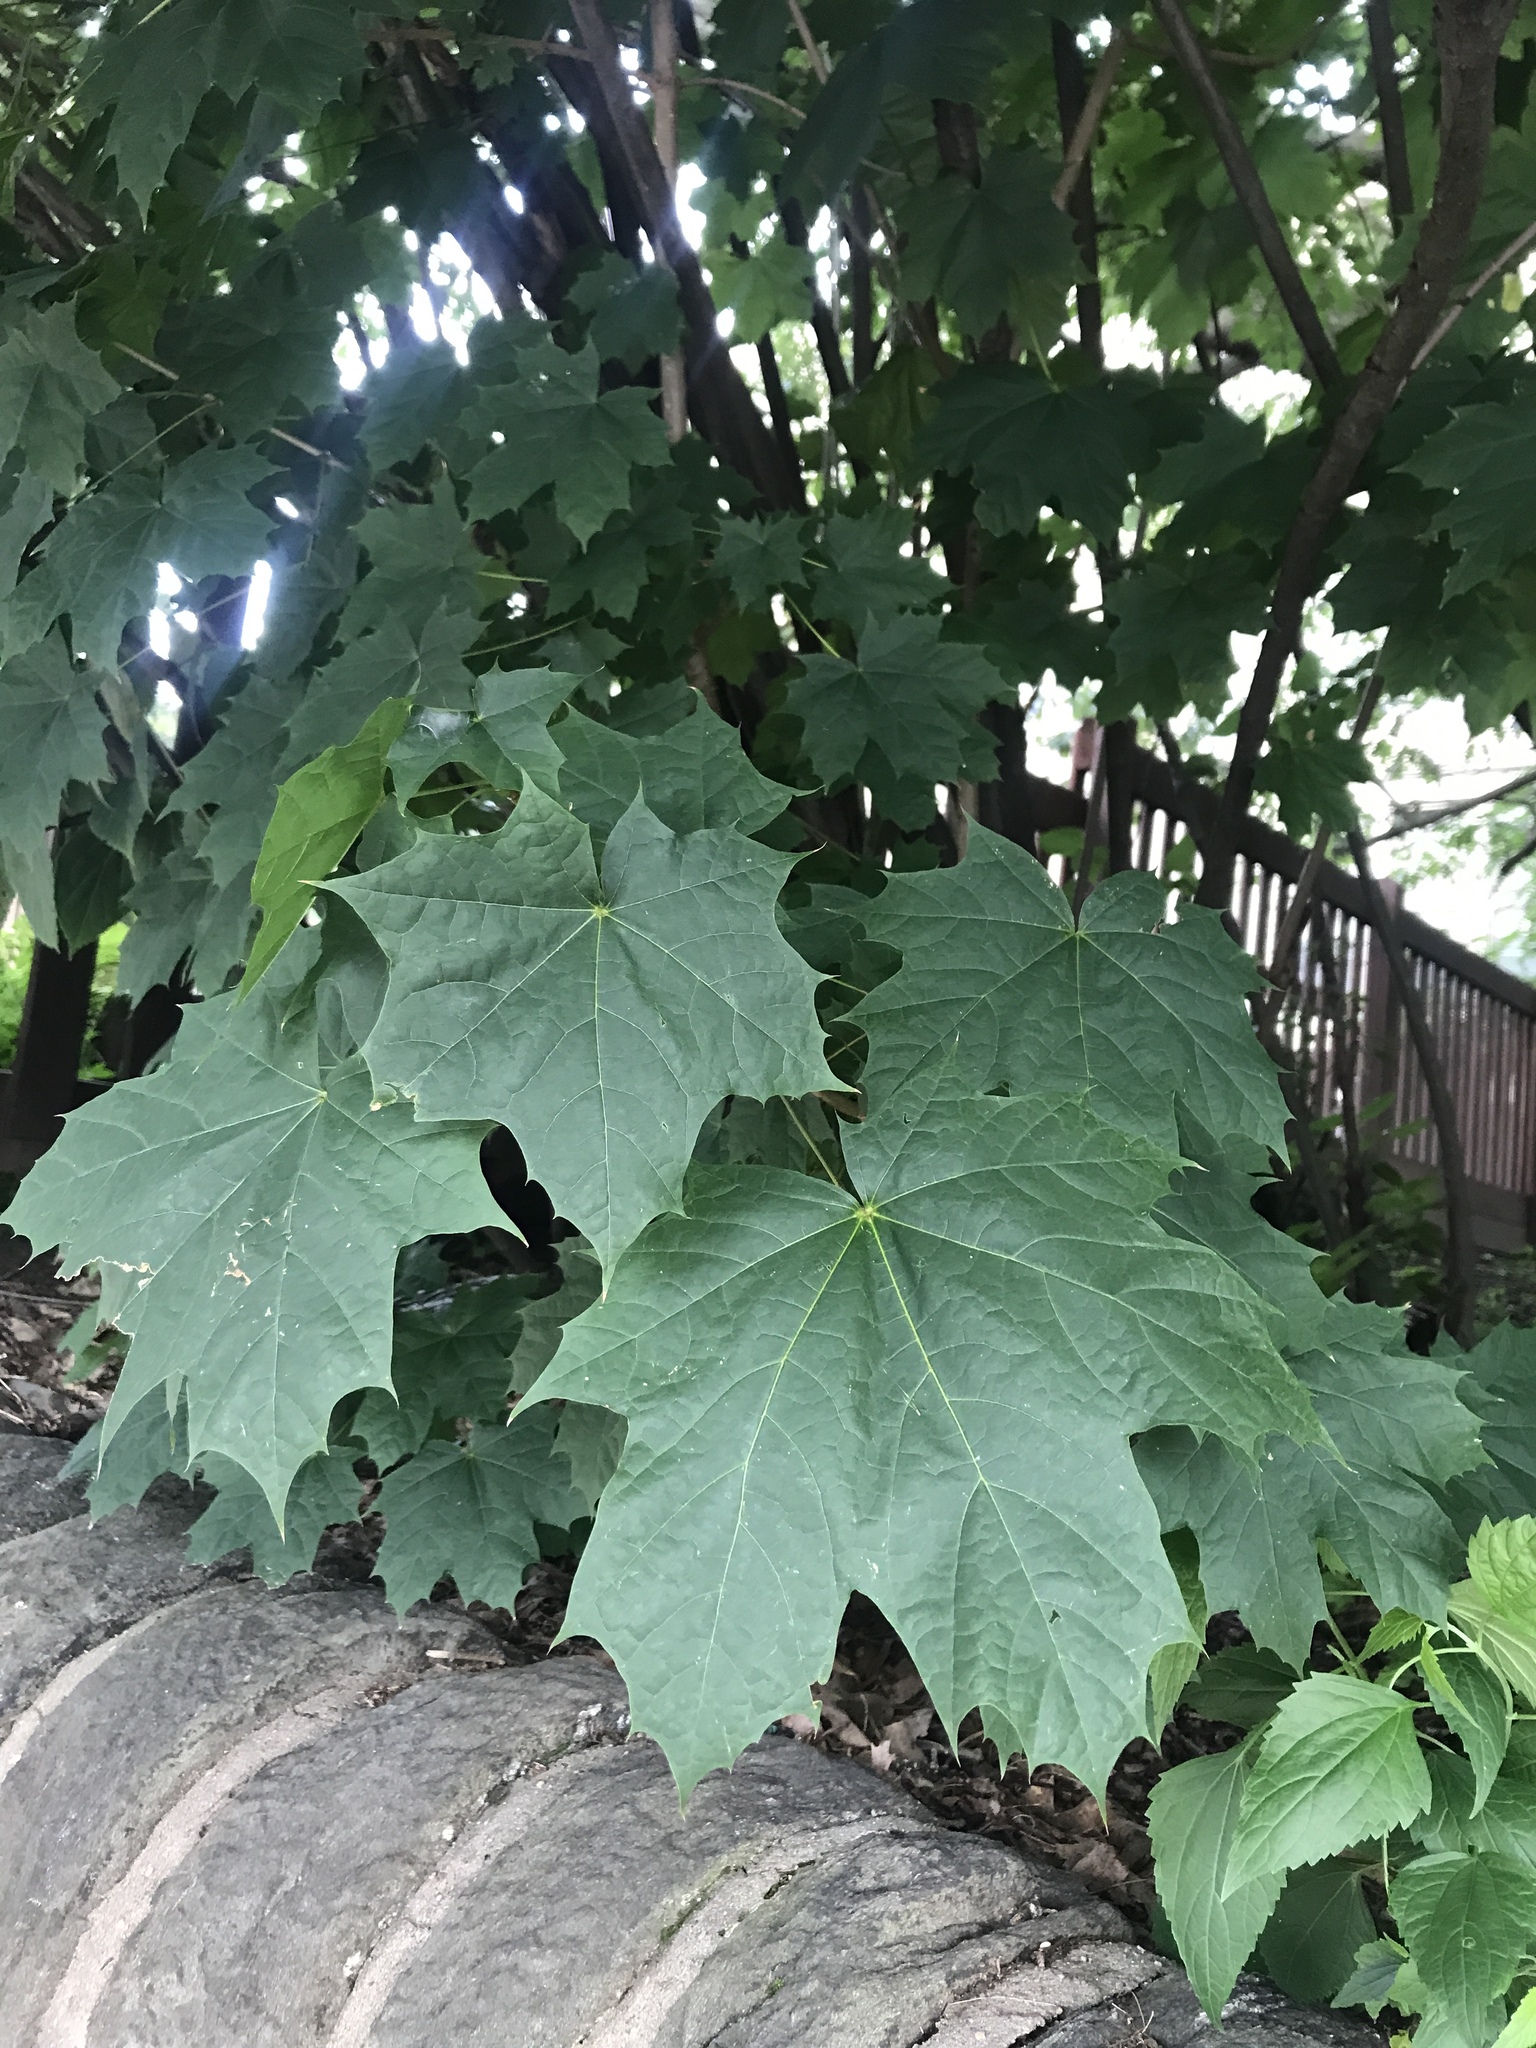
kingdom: Plantae
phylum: Tracheophyta
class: Magnoliopsida
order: Sapindales
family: Sapindaceae
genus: Acer
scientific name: Acer platanoides
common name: Norway maple
